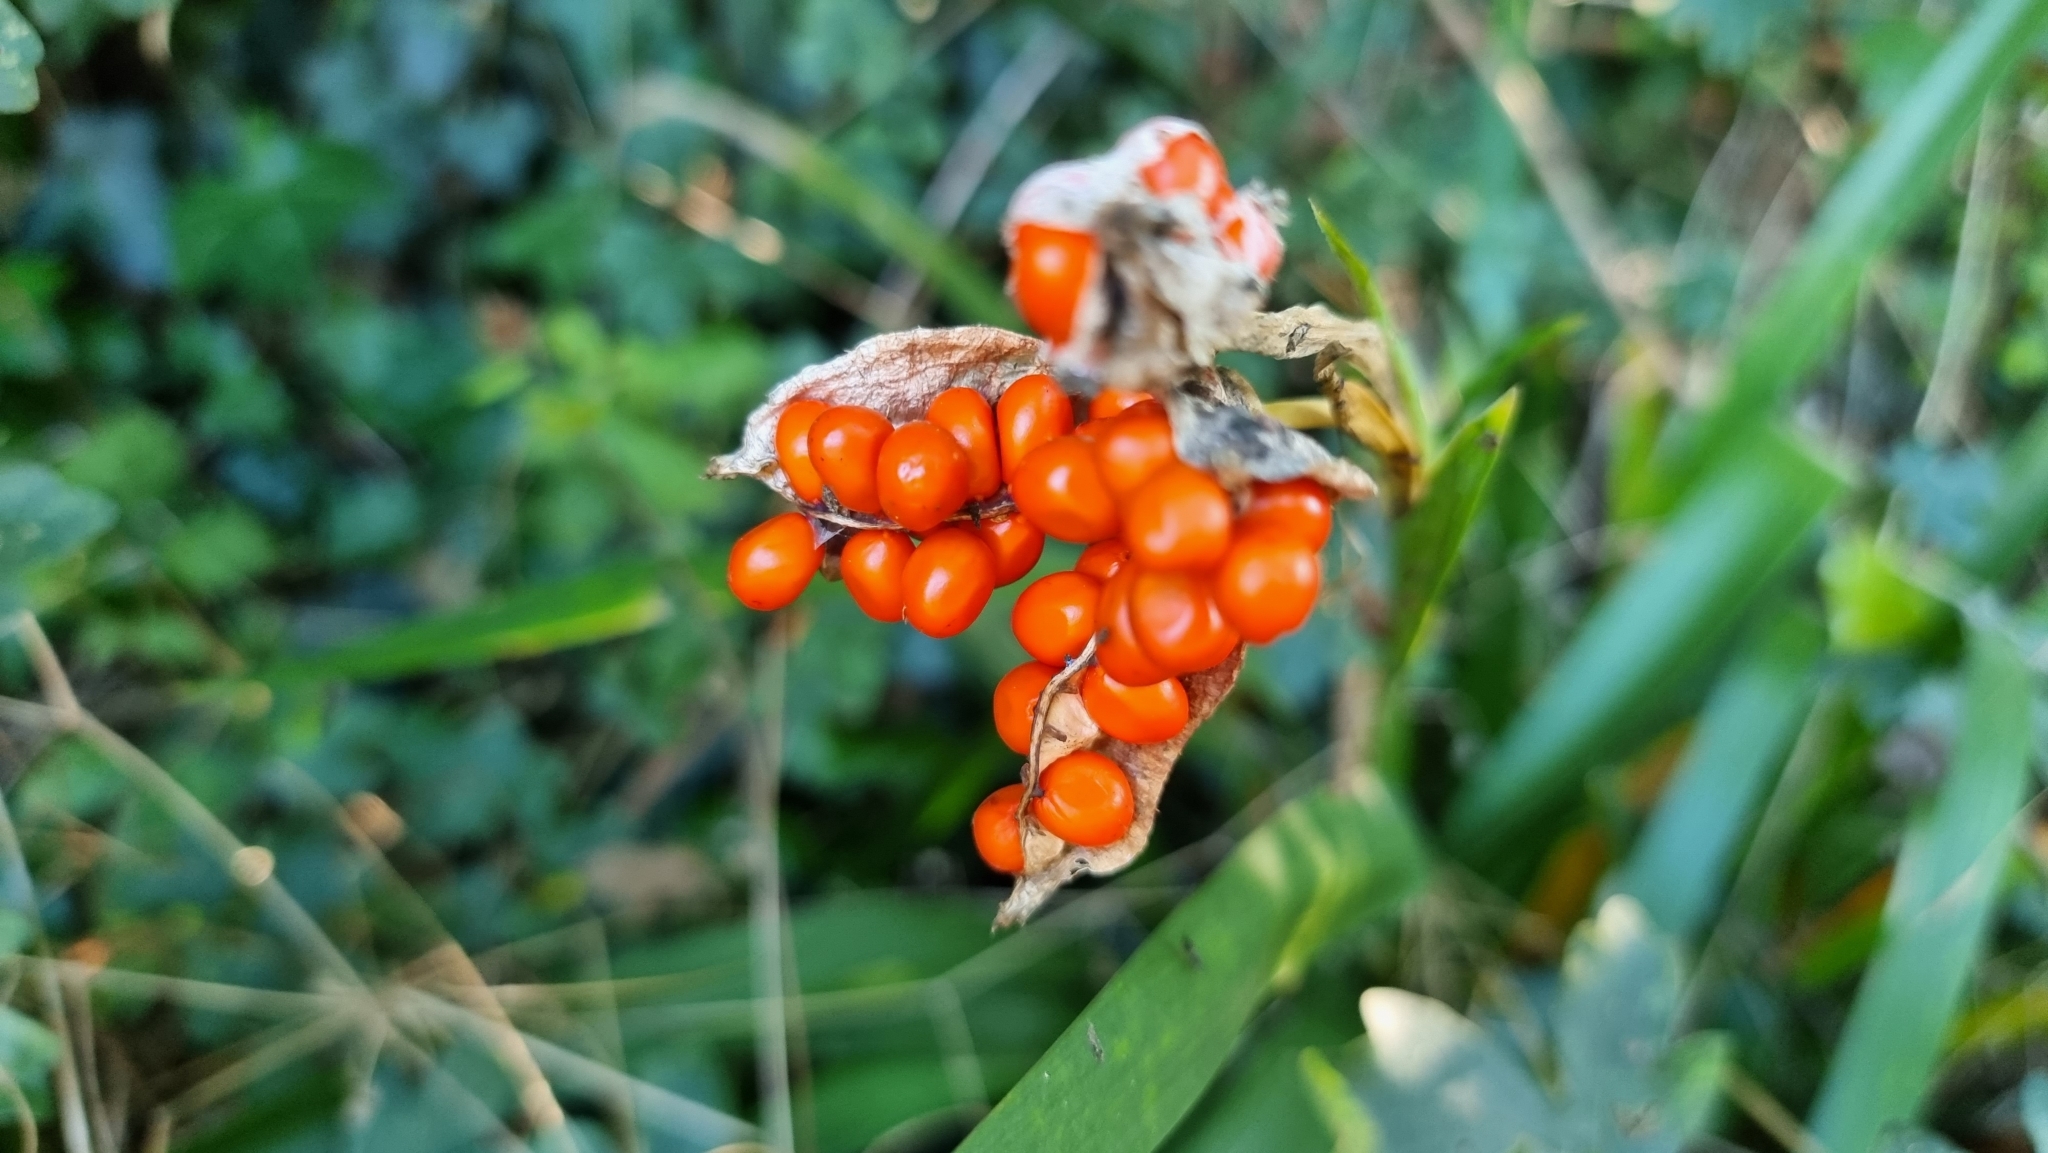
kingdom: Plantae
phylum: Tracheophyta
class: Liliopsida
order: Asparagales
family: Iridaceae
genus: Iris
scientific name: Iris foetidissima
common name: Stinking iris
